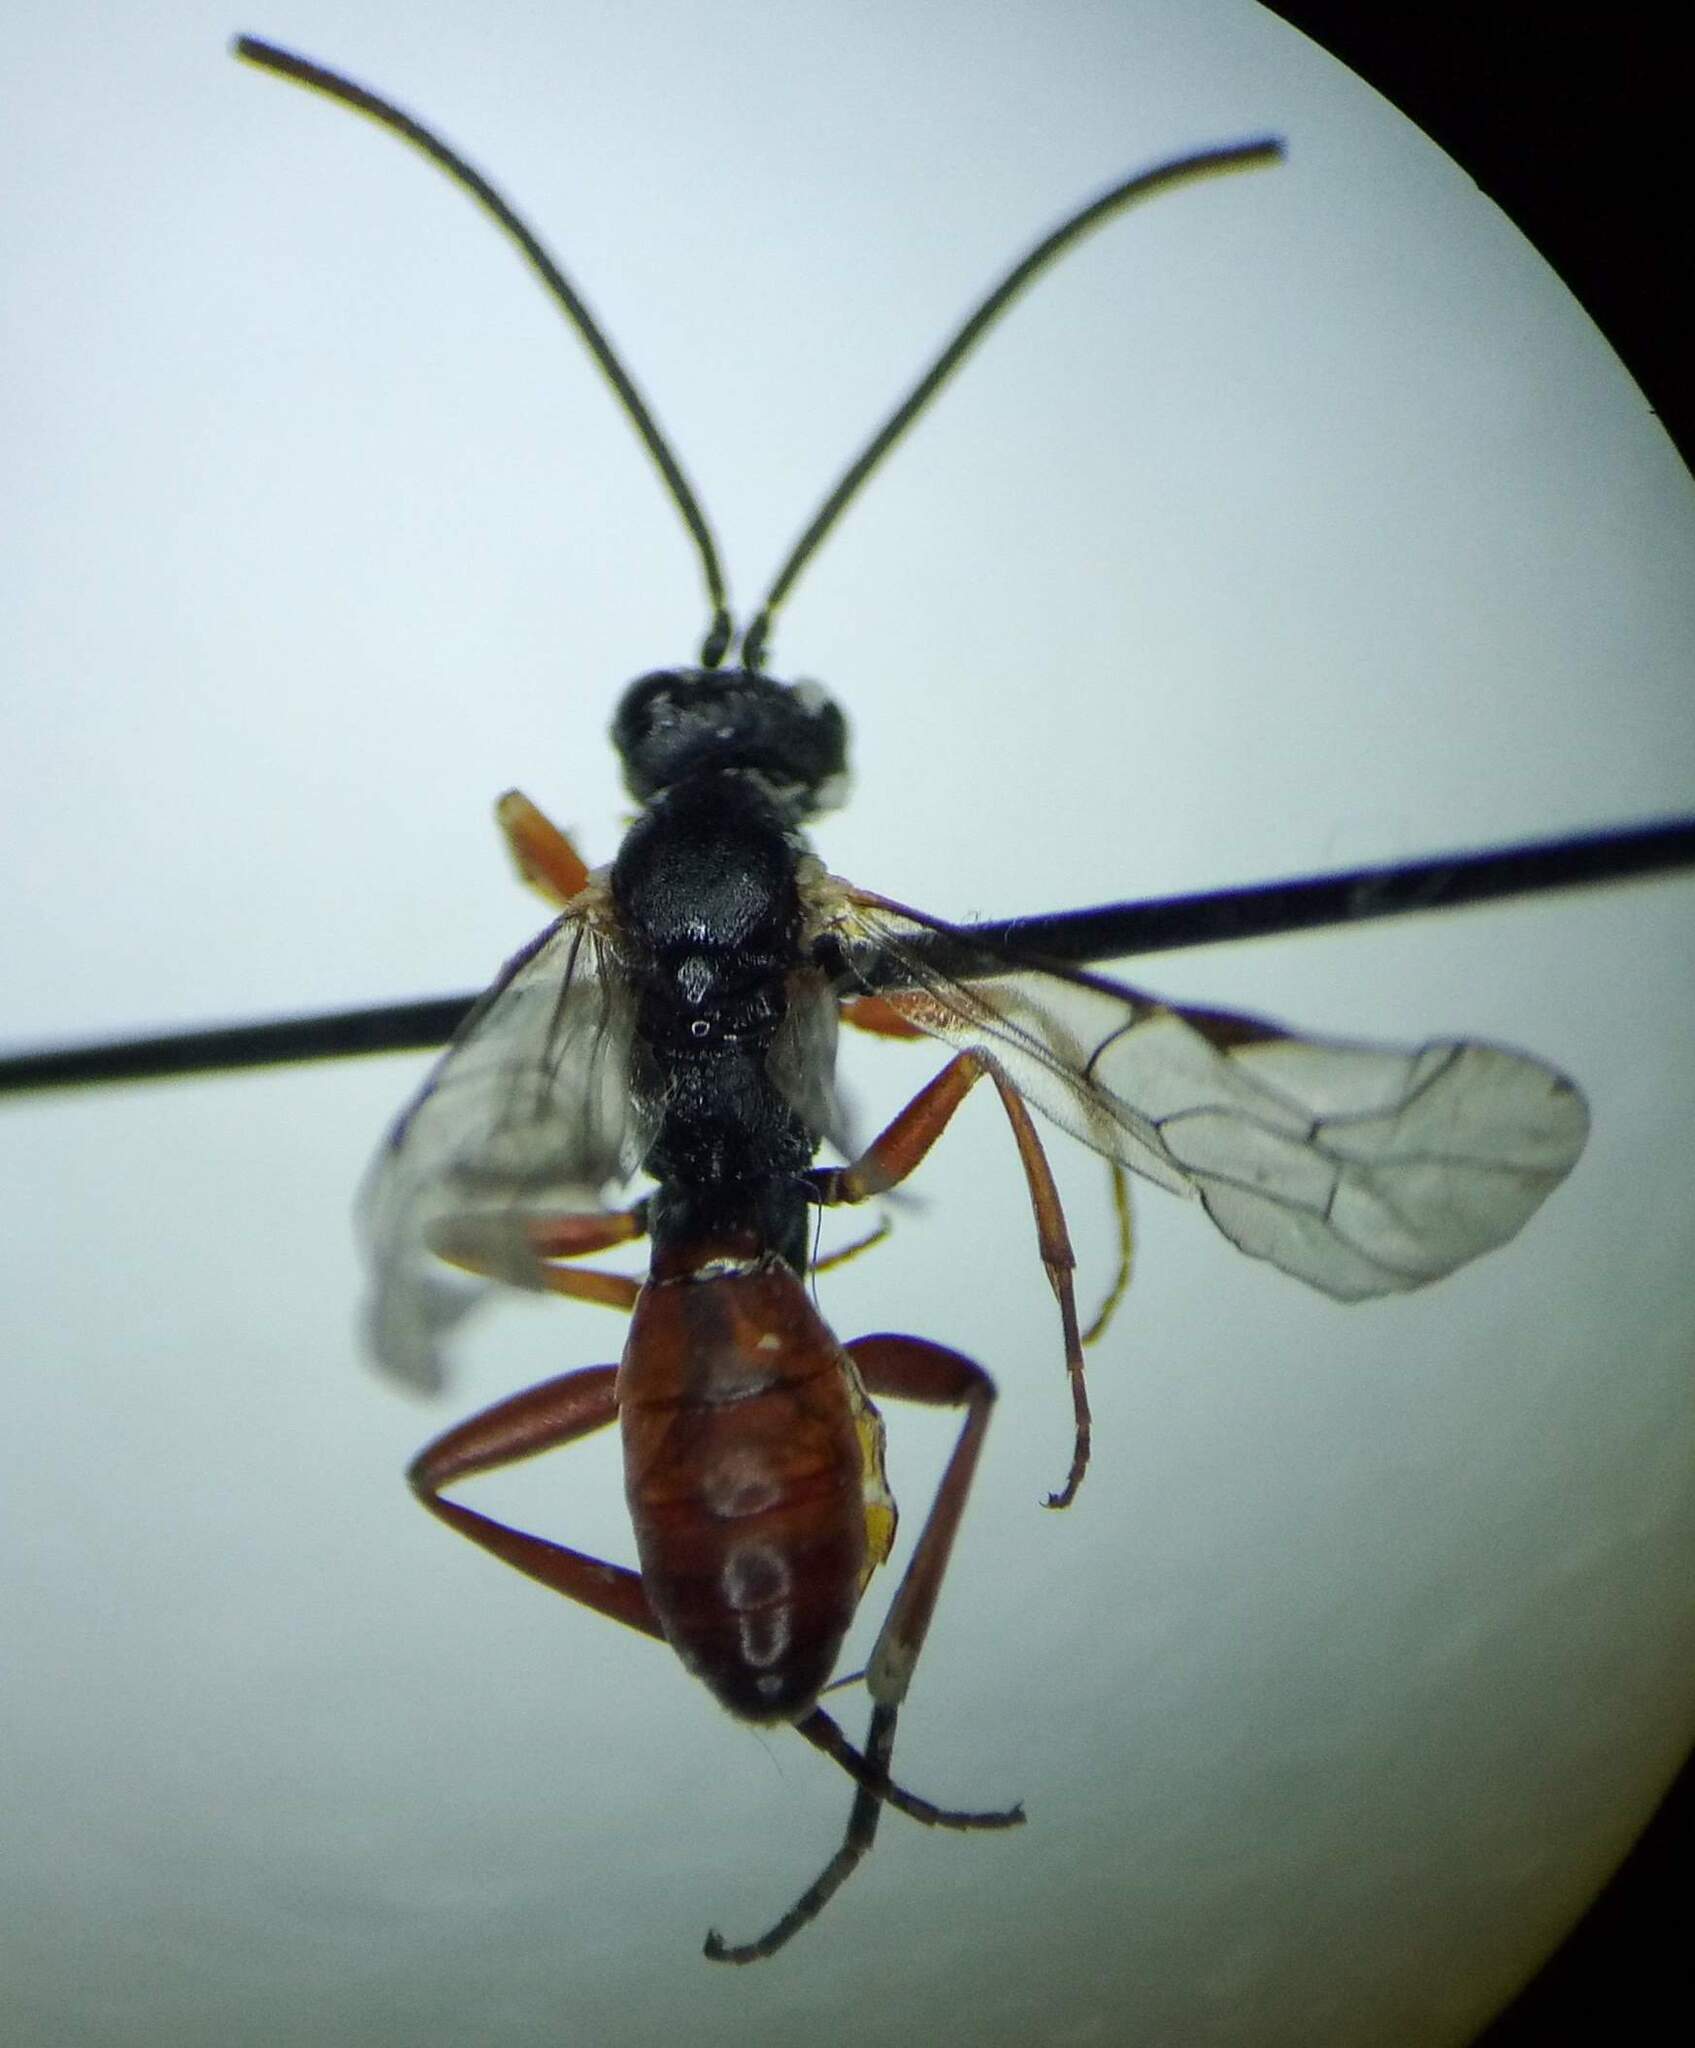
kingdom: Animalia
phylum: Arthropoda
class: Insecta
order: Hymenoptera
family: Ichneumonidae
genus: Sphecophaga
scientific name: Sphecophaga vesparum
